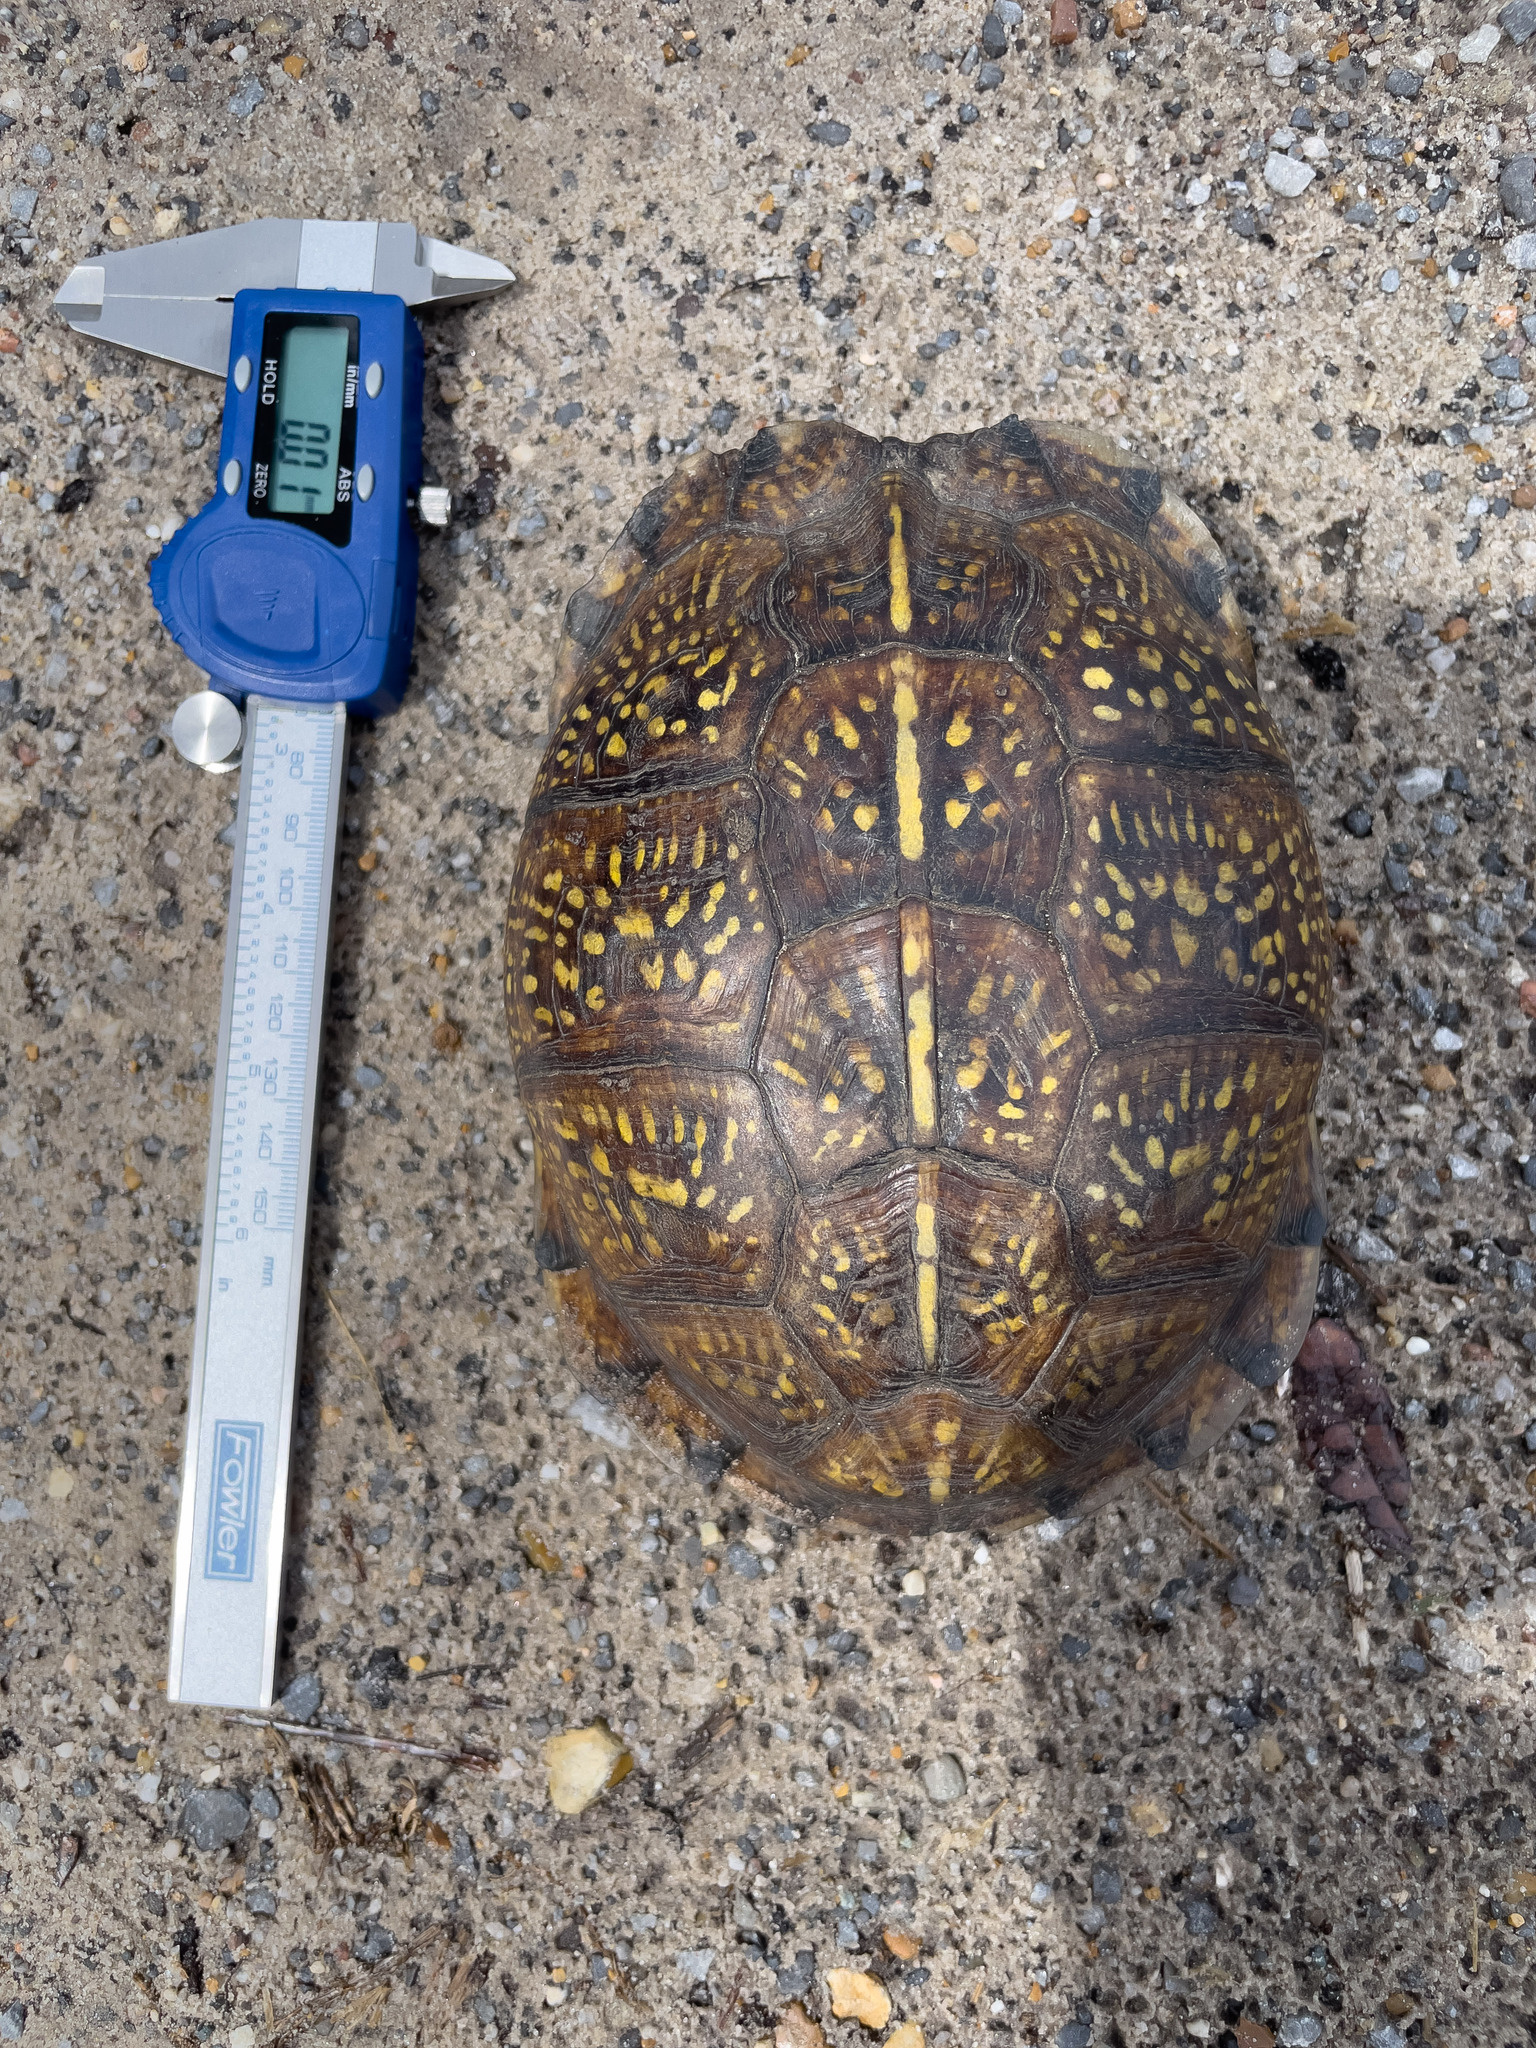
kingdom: Animalia
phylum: Chordata
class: Testudines
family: Emydidae
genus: Terrapene
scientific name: Terrapene carolina
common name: Common box turtle
